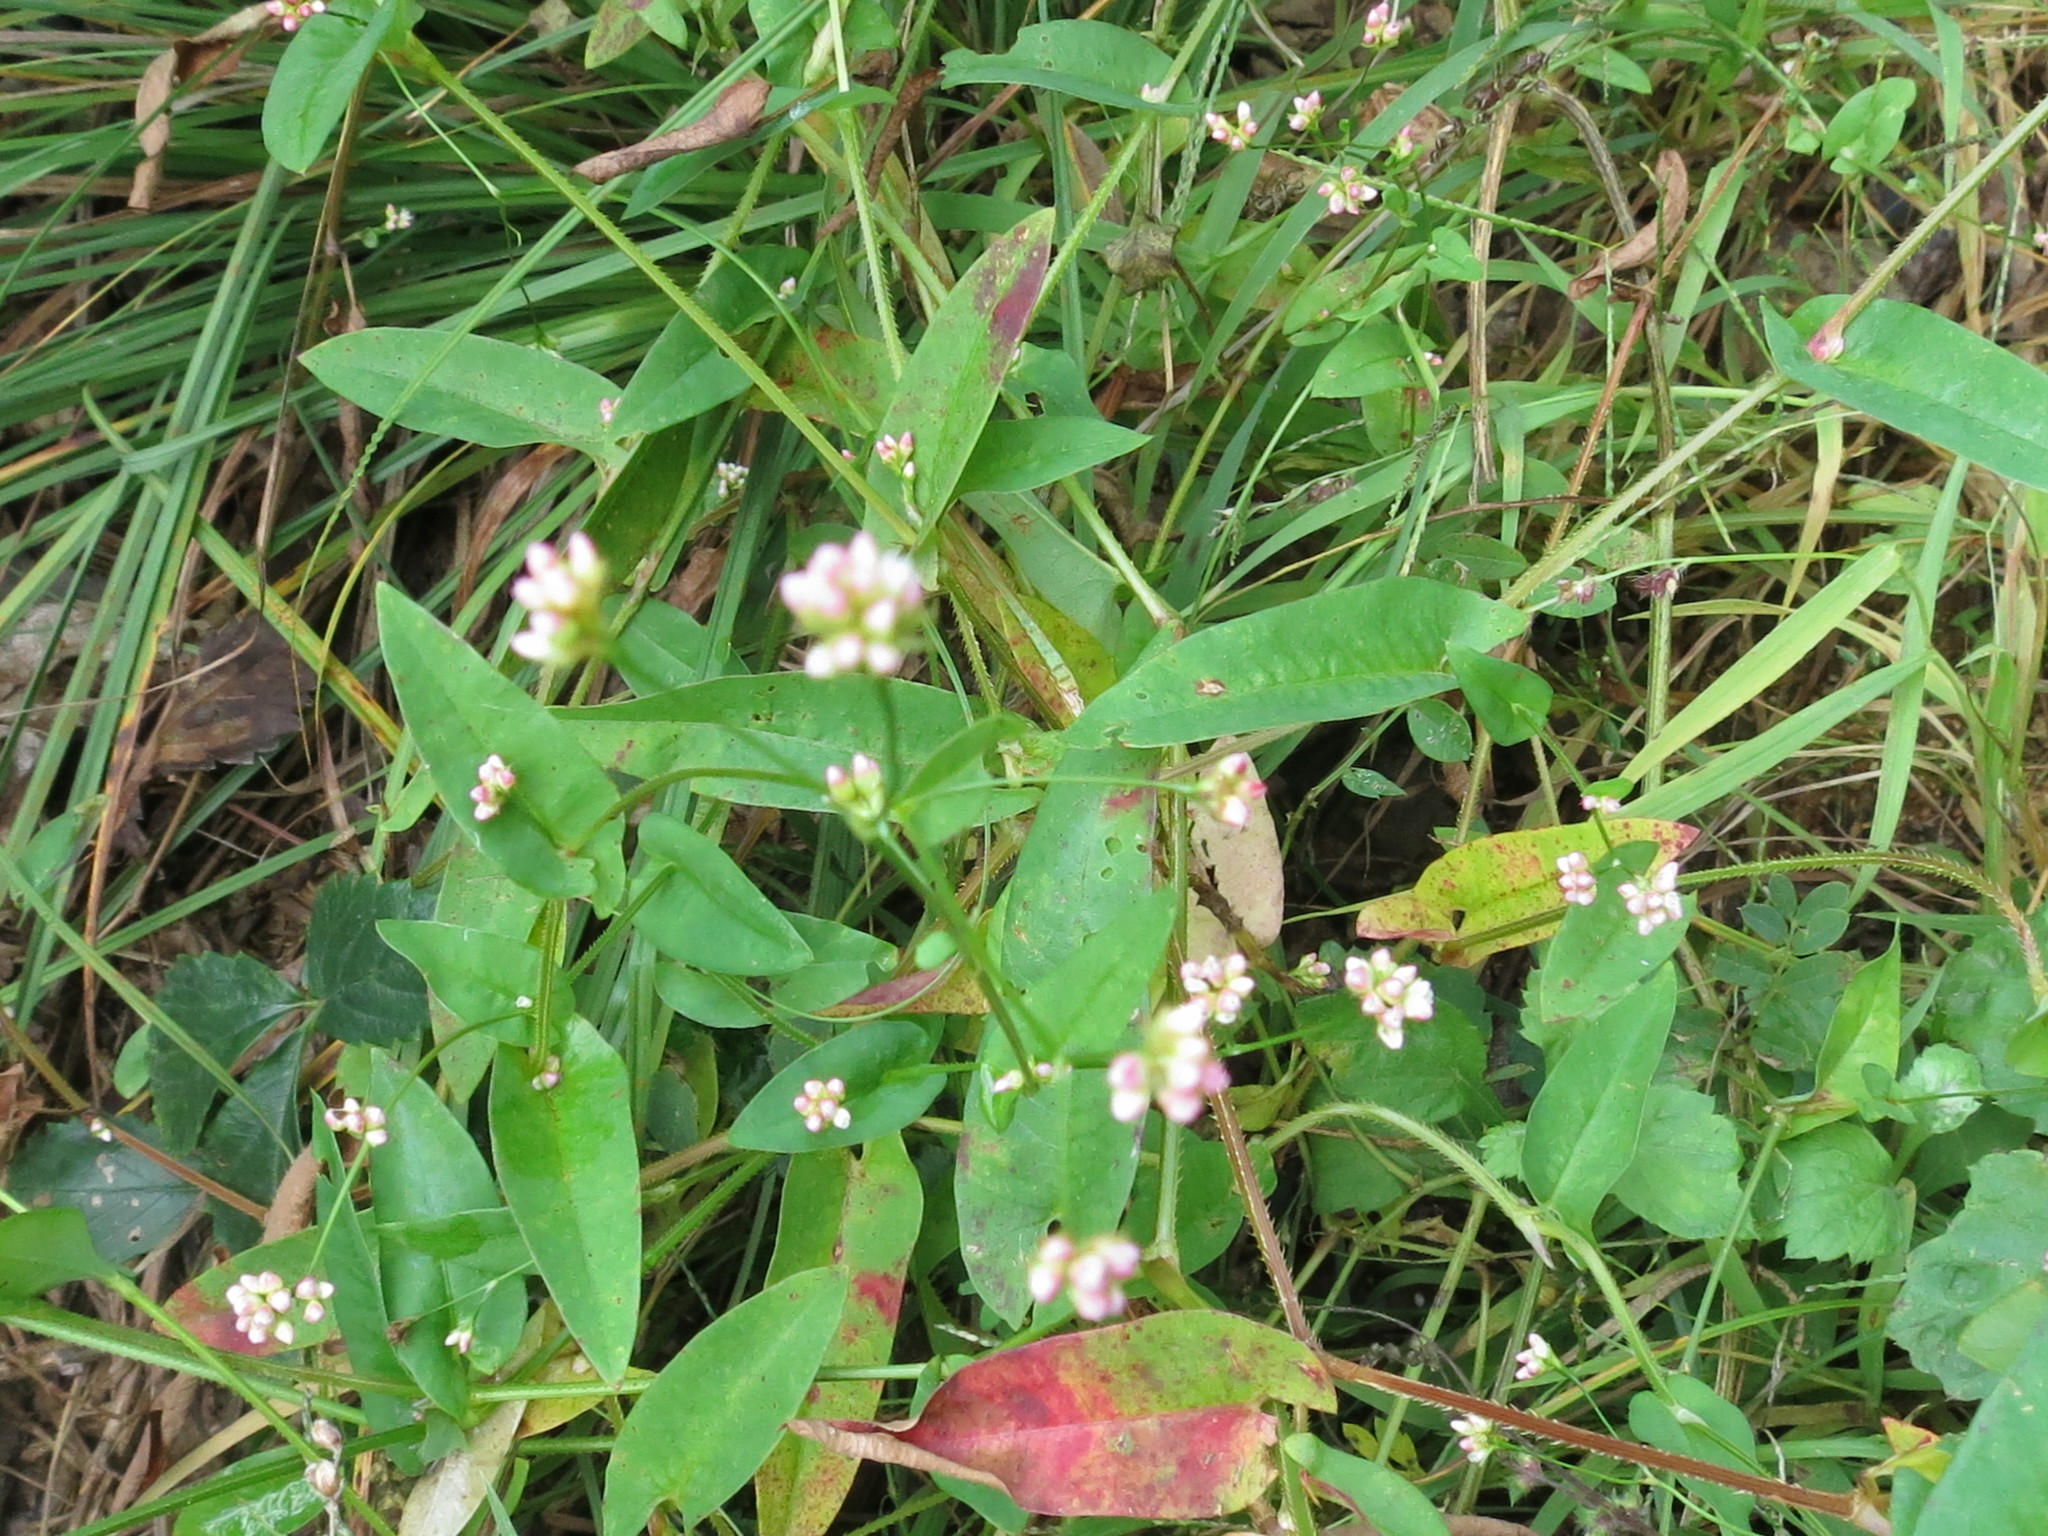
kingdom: Plantae
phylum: Tracheophyta
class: Magnoliopsida
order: Caryophyllales
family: Polygonaceae
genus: Persicaria
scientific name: Persicaria sagittata
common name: American tearthumb
